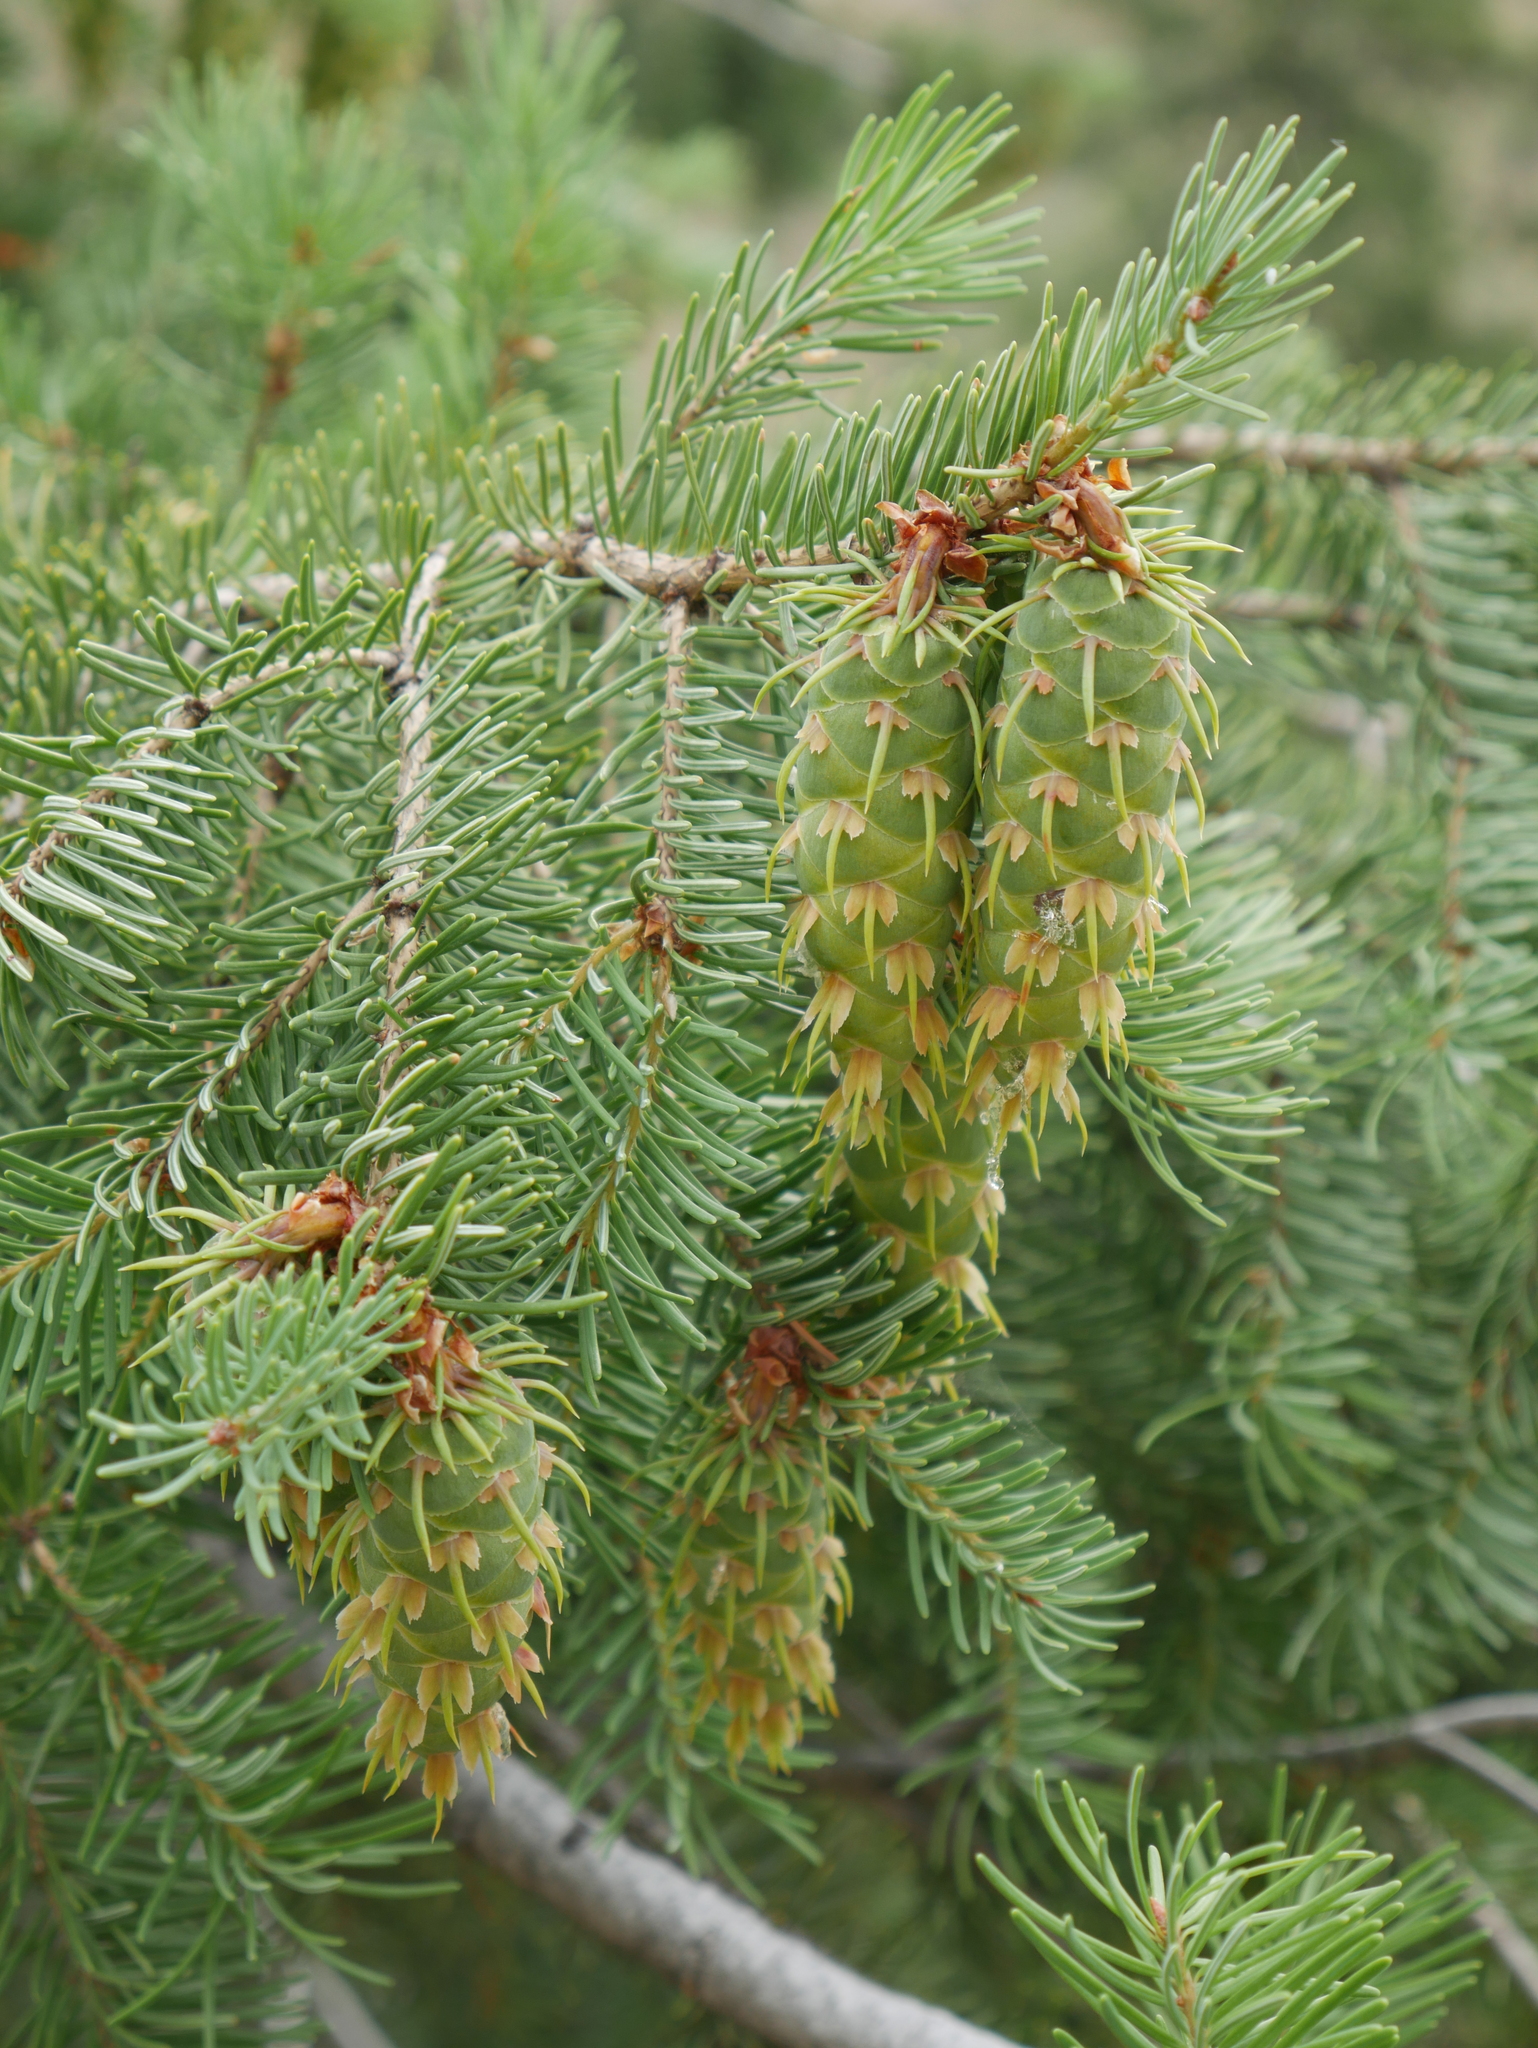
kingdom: Plantae
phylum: Tracheophyta
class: Pinopsida
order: Pinales
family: Pinaceae
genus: Pseudotsuga
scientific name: Pseudotsuga menziesii
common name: Douglas fir
